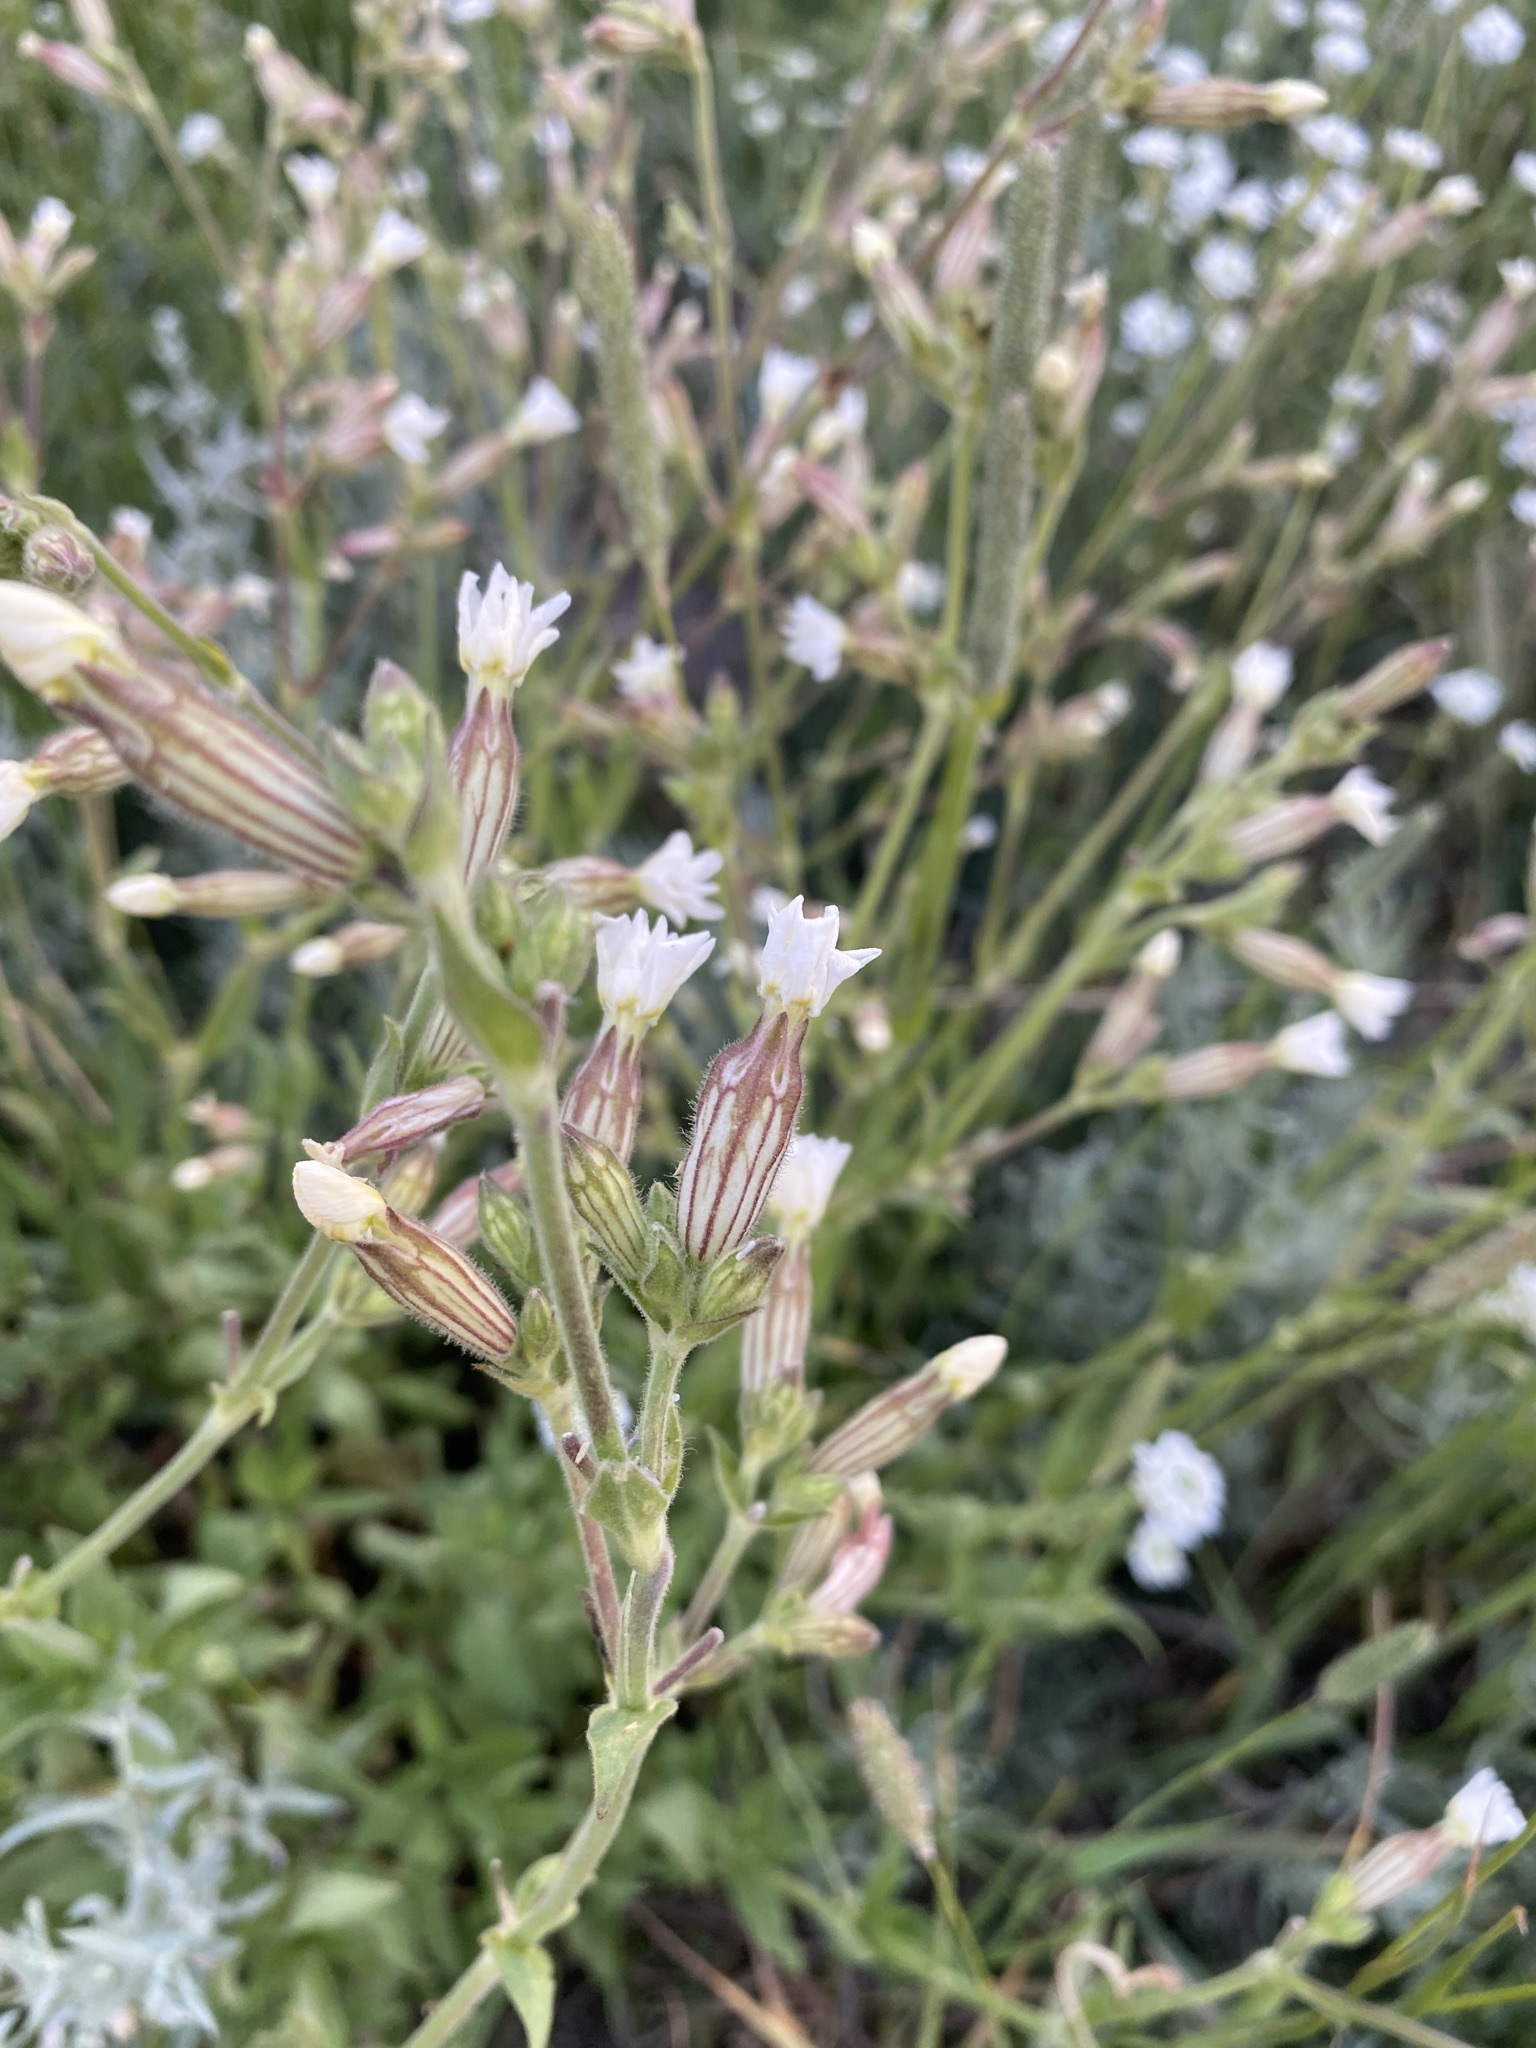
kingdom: Plantae
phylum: Tracheophyta
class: Magnoliopsida
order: Caryophyllales
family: Caryophyllaceae
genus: Silene
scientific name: Silene latifolia
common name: White campion
